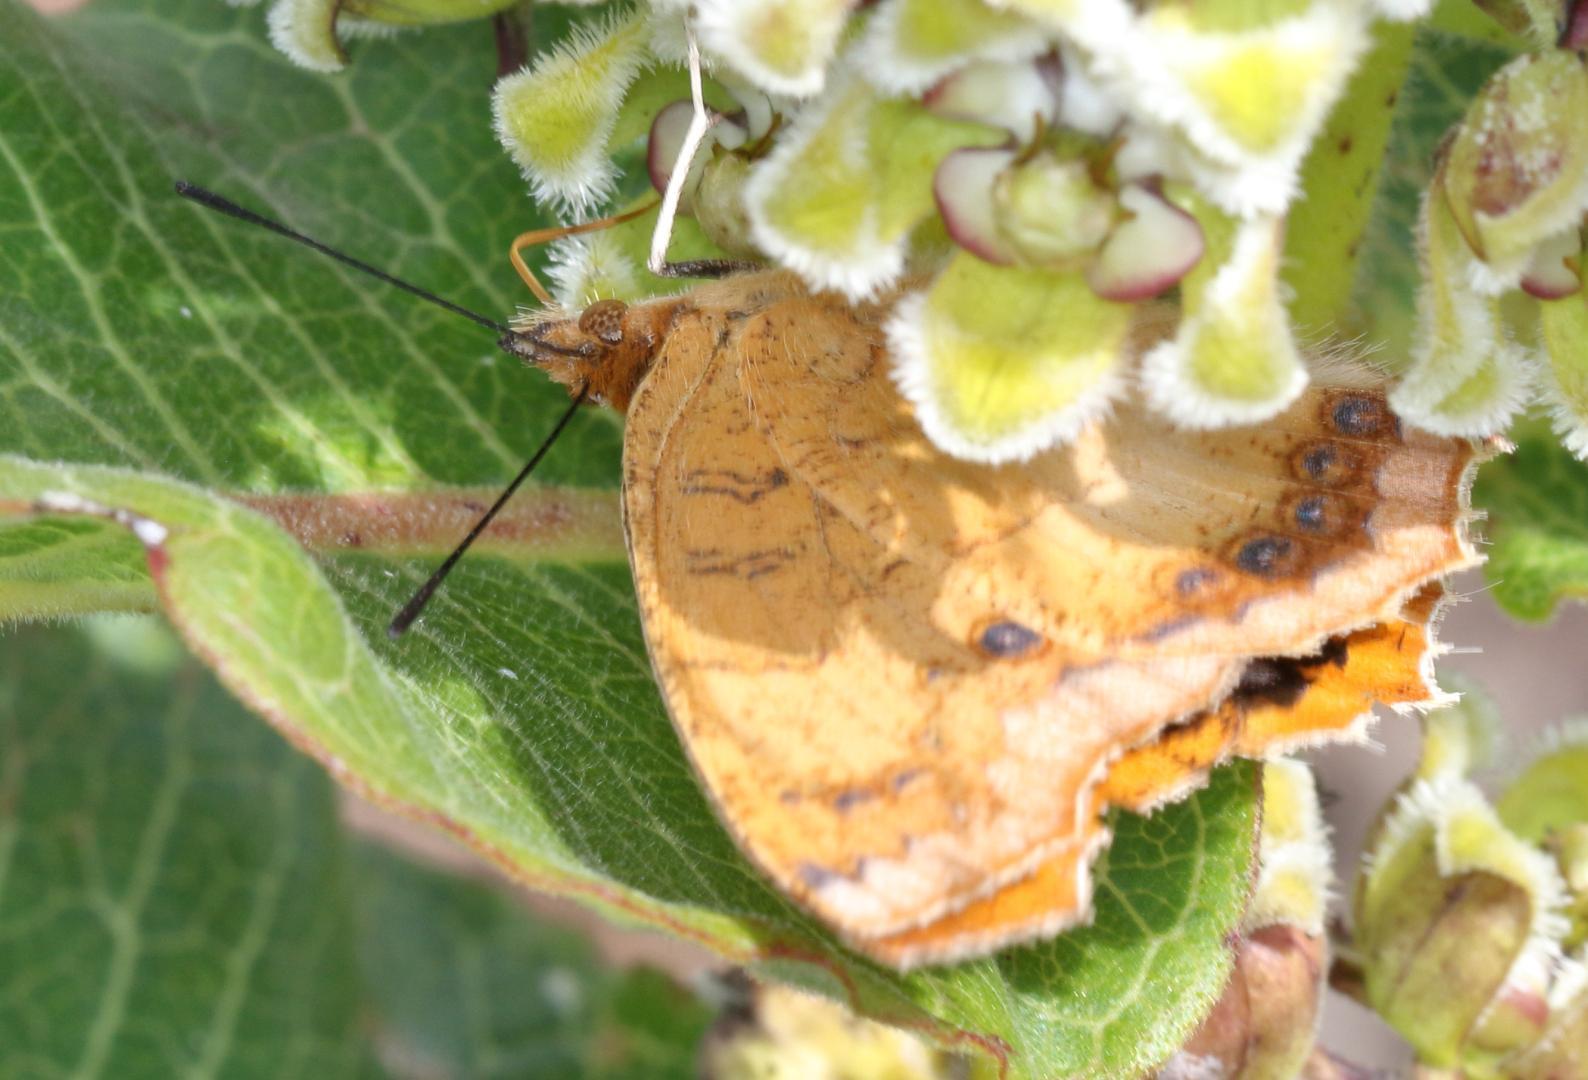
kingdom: Animalia
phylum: Arthropoda
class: Insecta
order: Lepidoptera
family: Nymphalidae
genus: Catacroptera
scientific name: Catacroptera cloanthe
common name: Pirate
